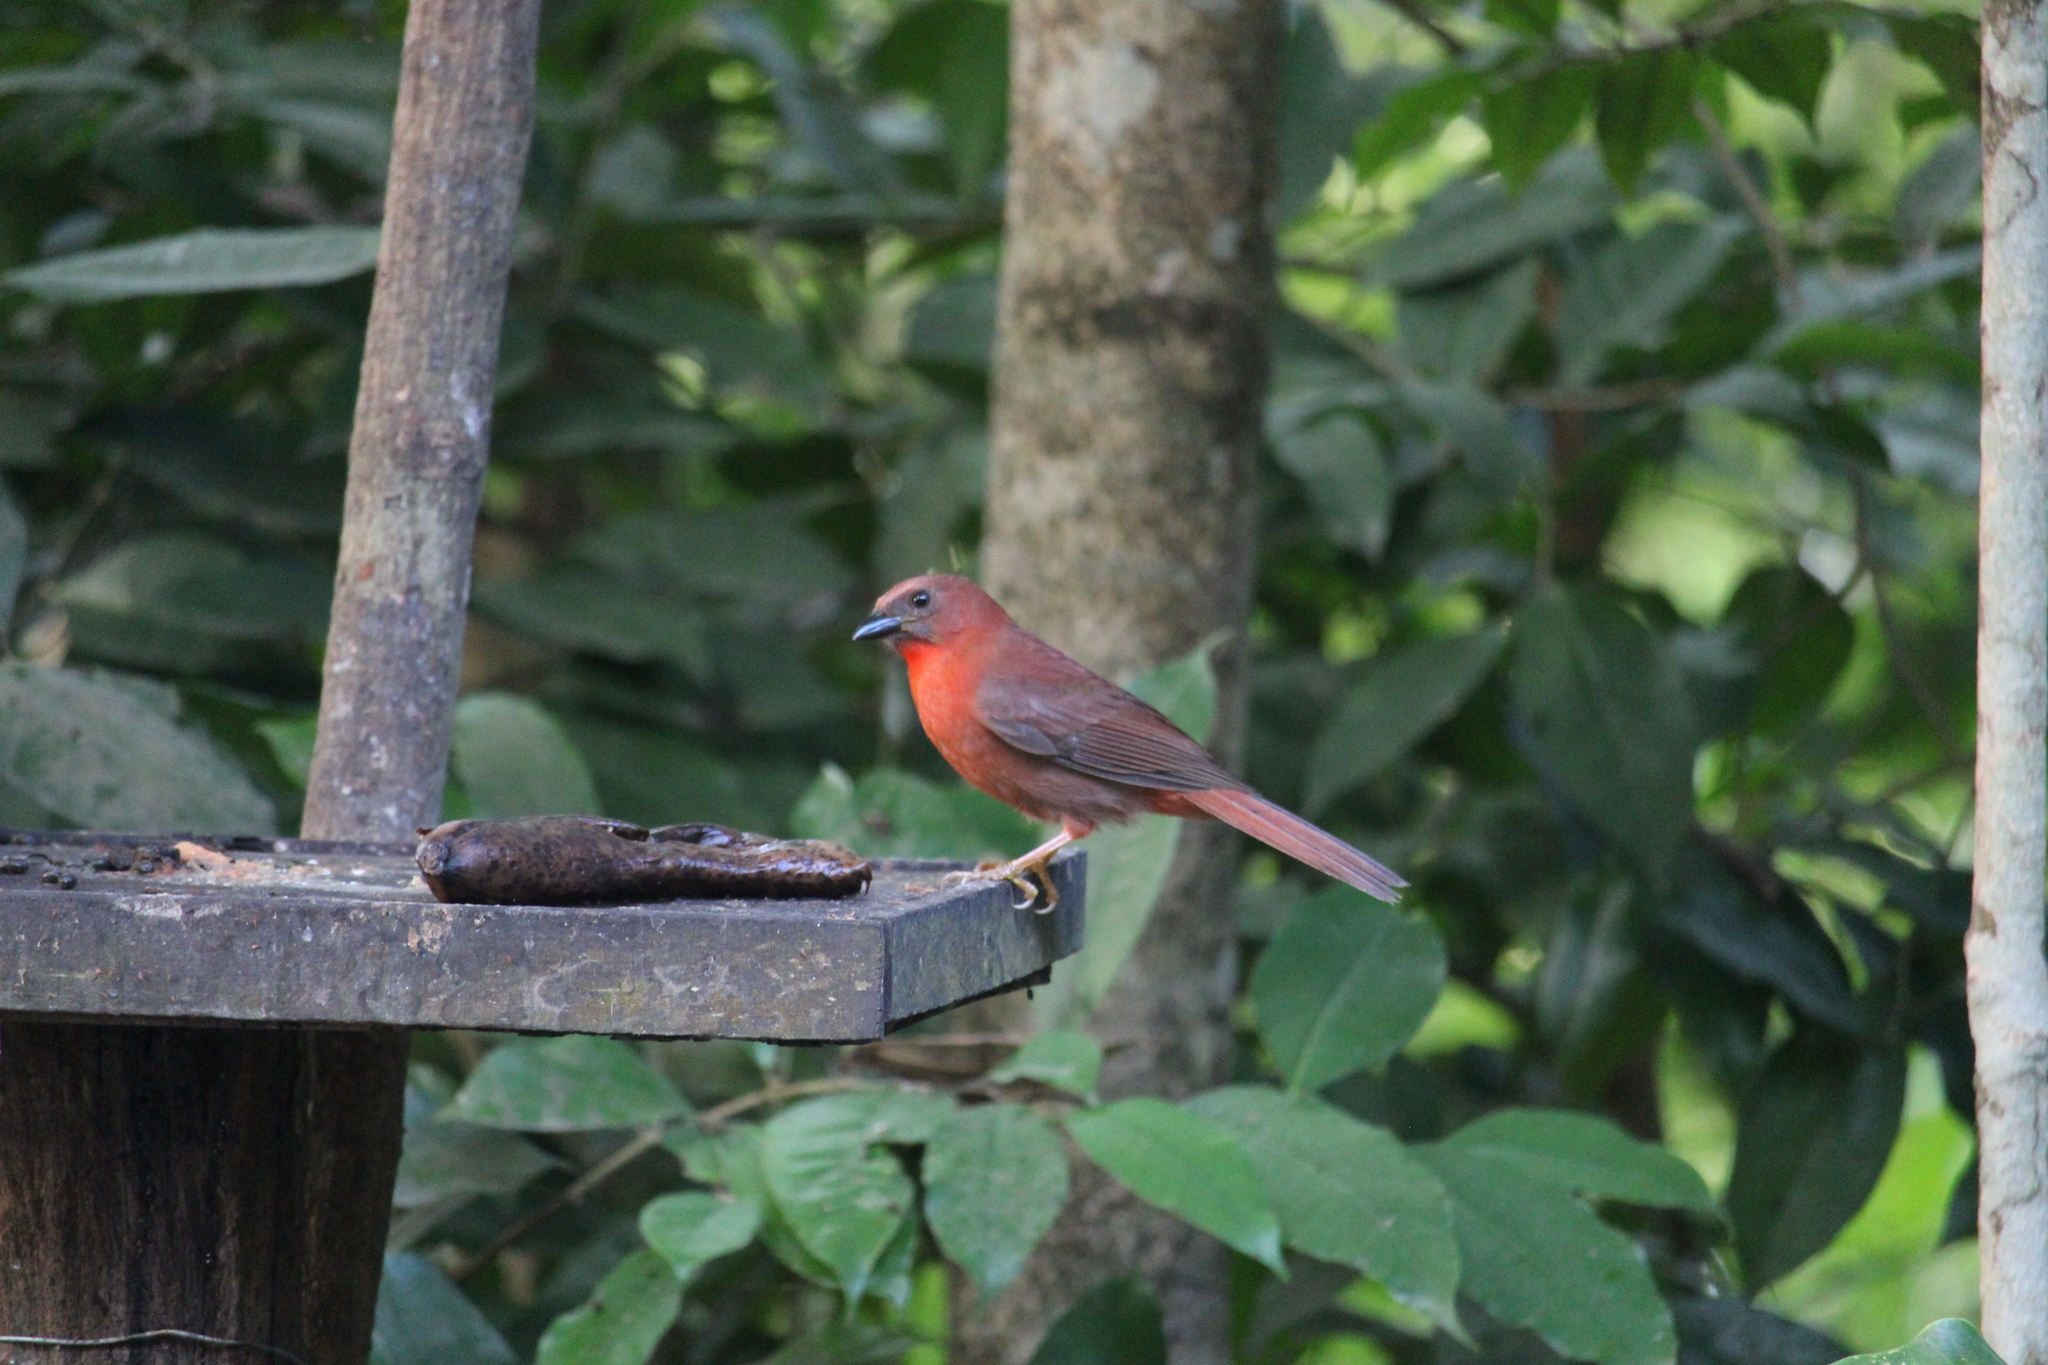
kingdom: Animalia
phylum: Chordata
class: Aves
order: Passeriformes
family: Cardinalidae
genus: Habia
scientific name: Habia fuscicauda
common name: Red-throated ant-tanager
